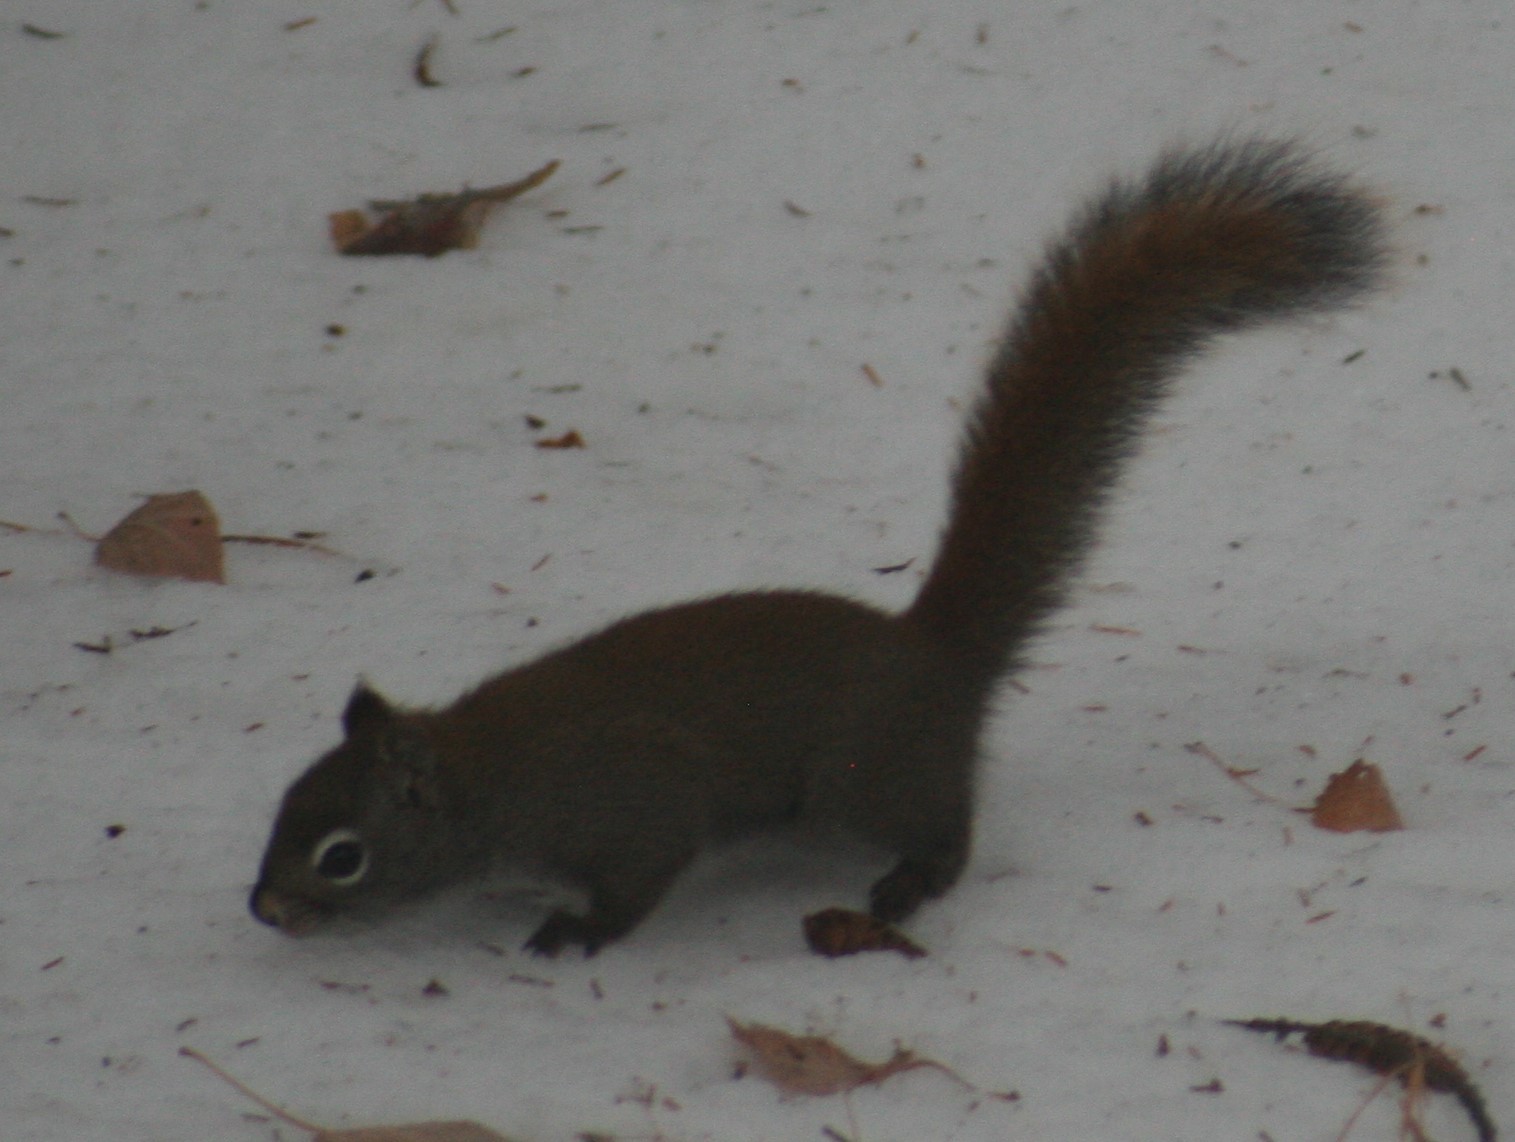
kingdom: Animalia
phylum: Chordata
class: Mammalia
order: Rodentia
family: Sciuridae
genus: Tamiasciurus
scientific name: Tamiasciurus hudsonicus
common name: Red squirrel
